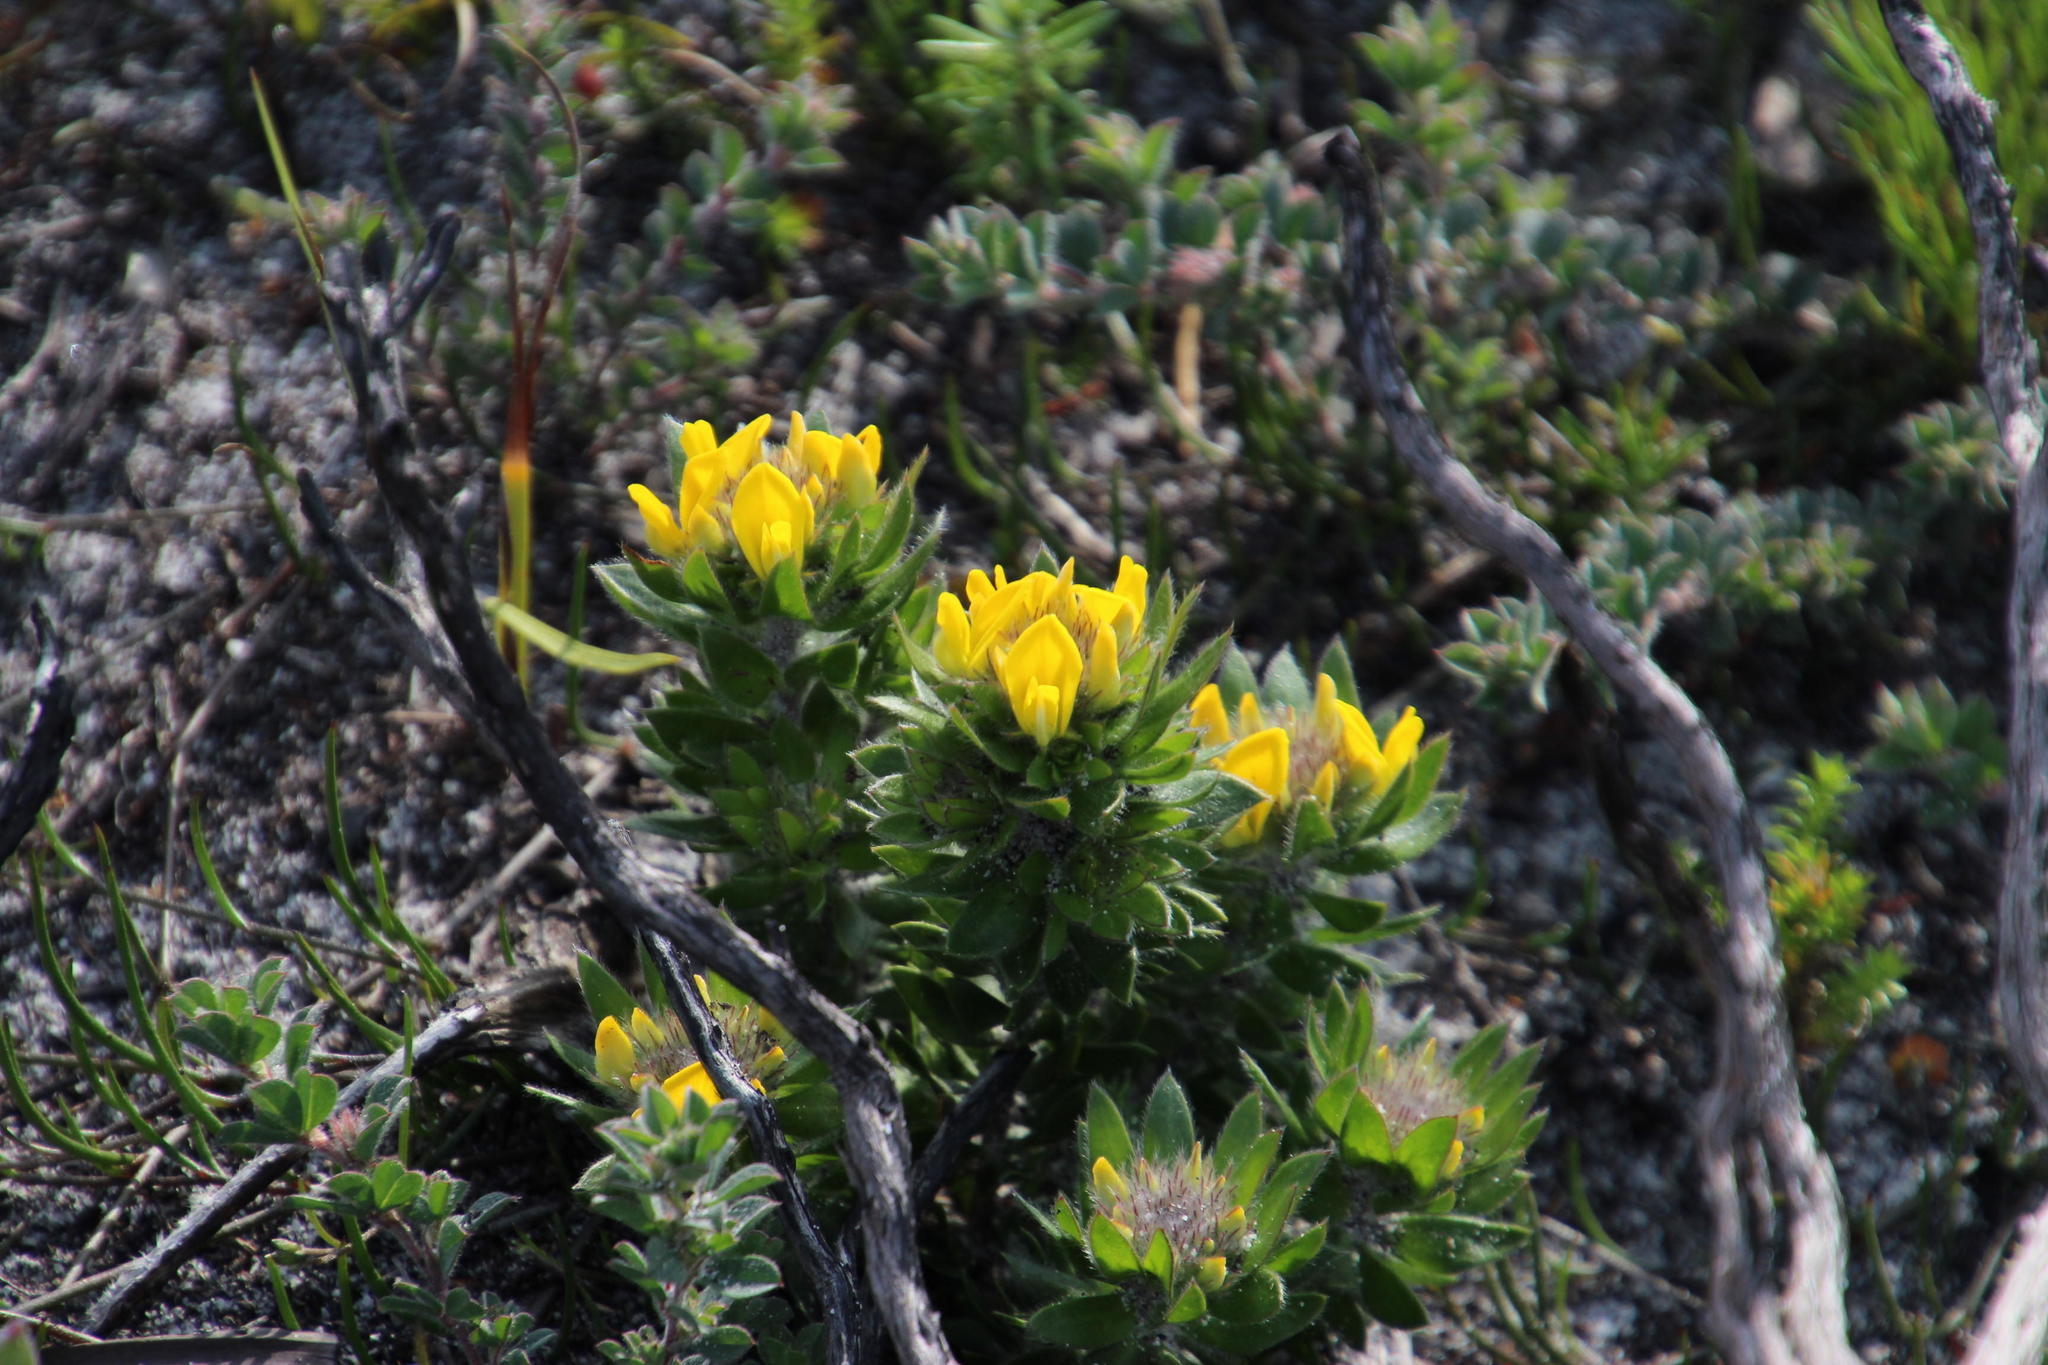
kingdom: Plantae
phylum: Tracheophyta
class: Magnoliopsida
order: Fabales
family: Fabaceae
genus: Aspalathus
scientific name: Aspalathus aspalathoides
